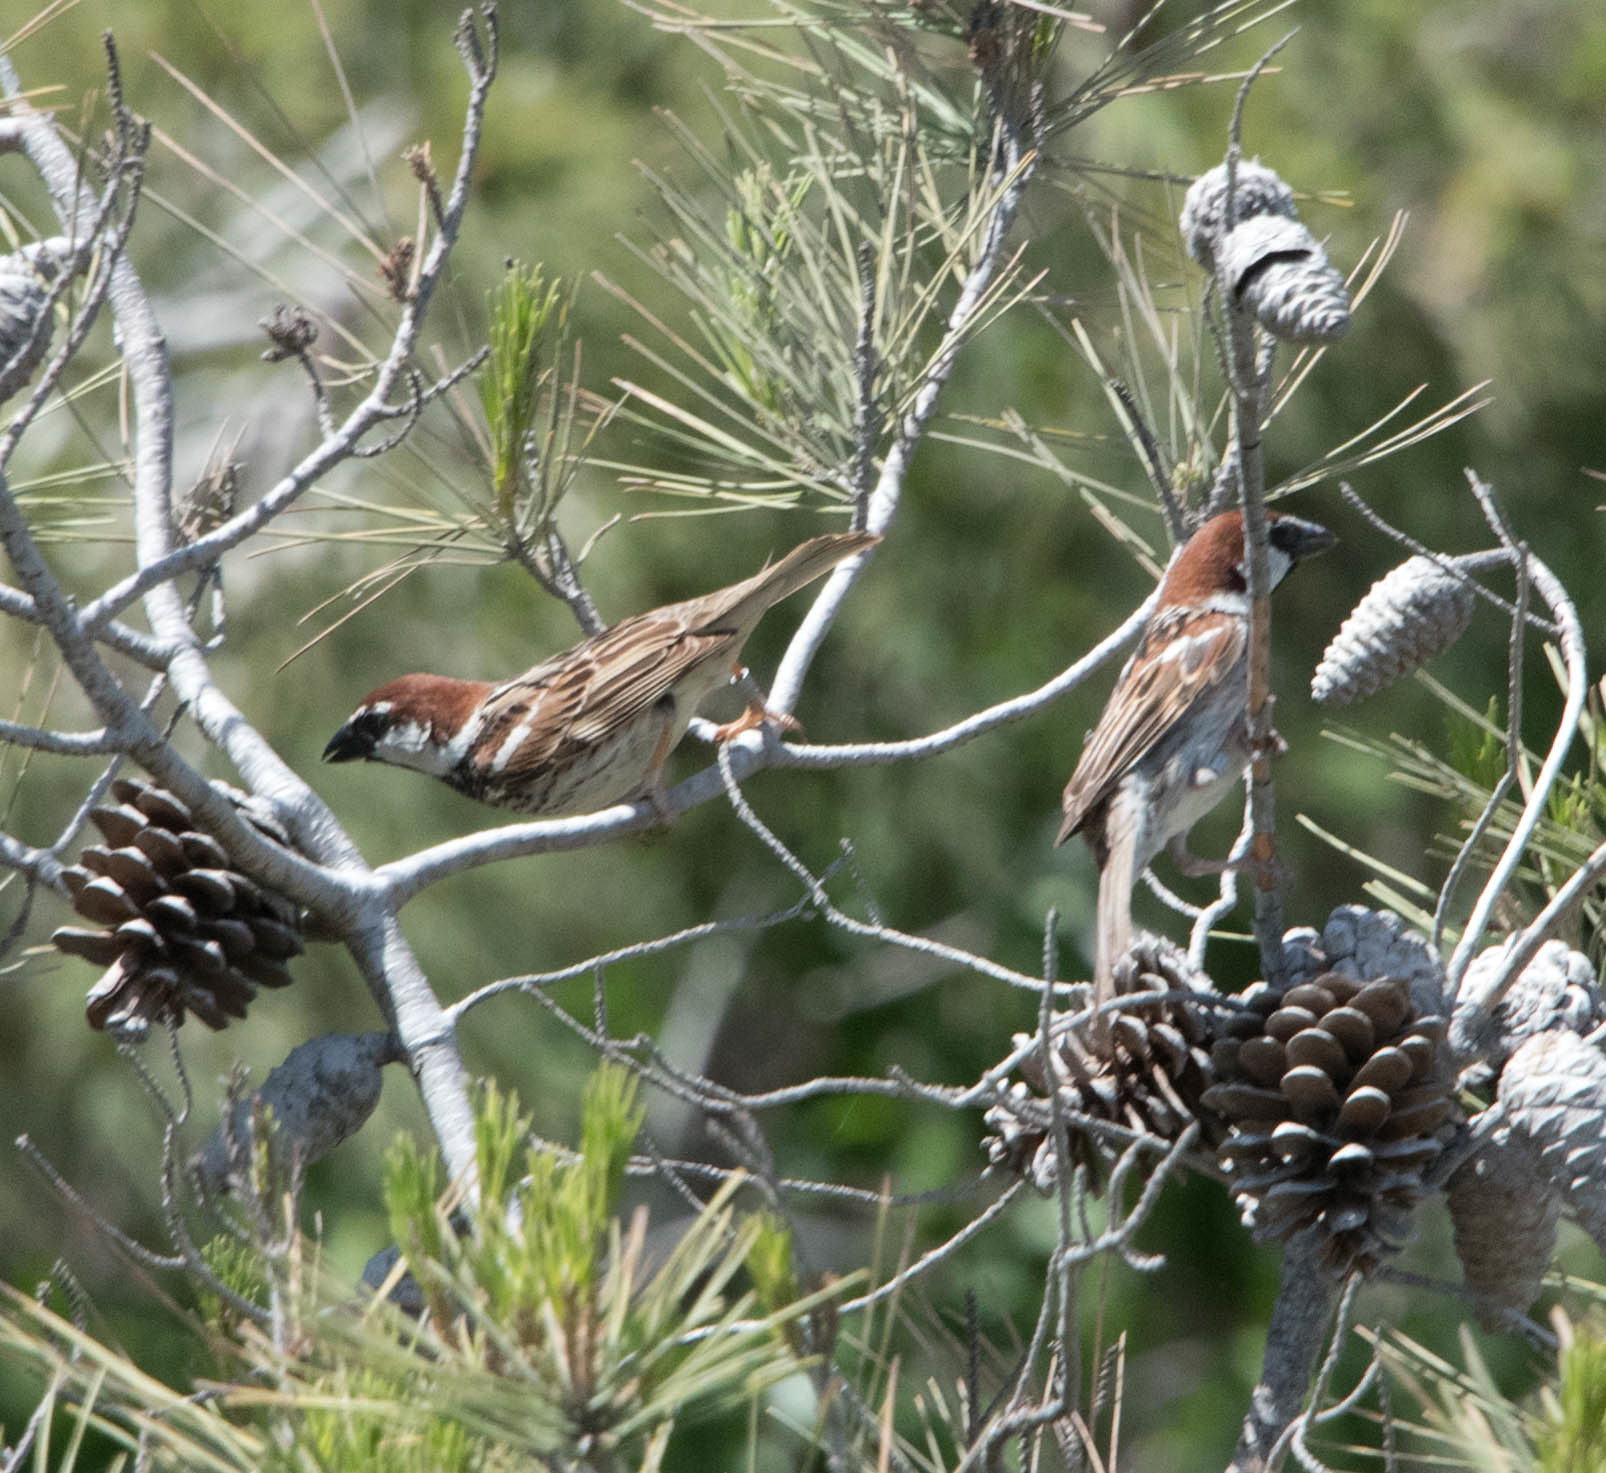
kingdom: Animalia
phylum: Chordata
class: Aves
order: Passeriformes
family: Passeridae
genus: Passer
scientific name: Passer italiae
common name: Italian sparrow
